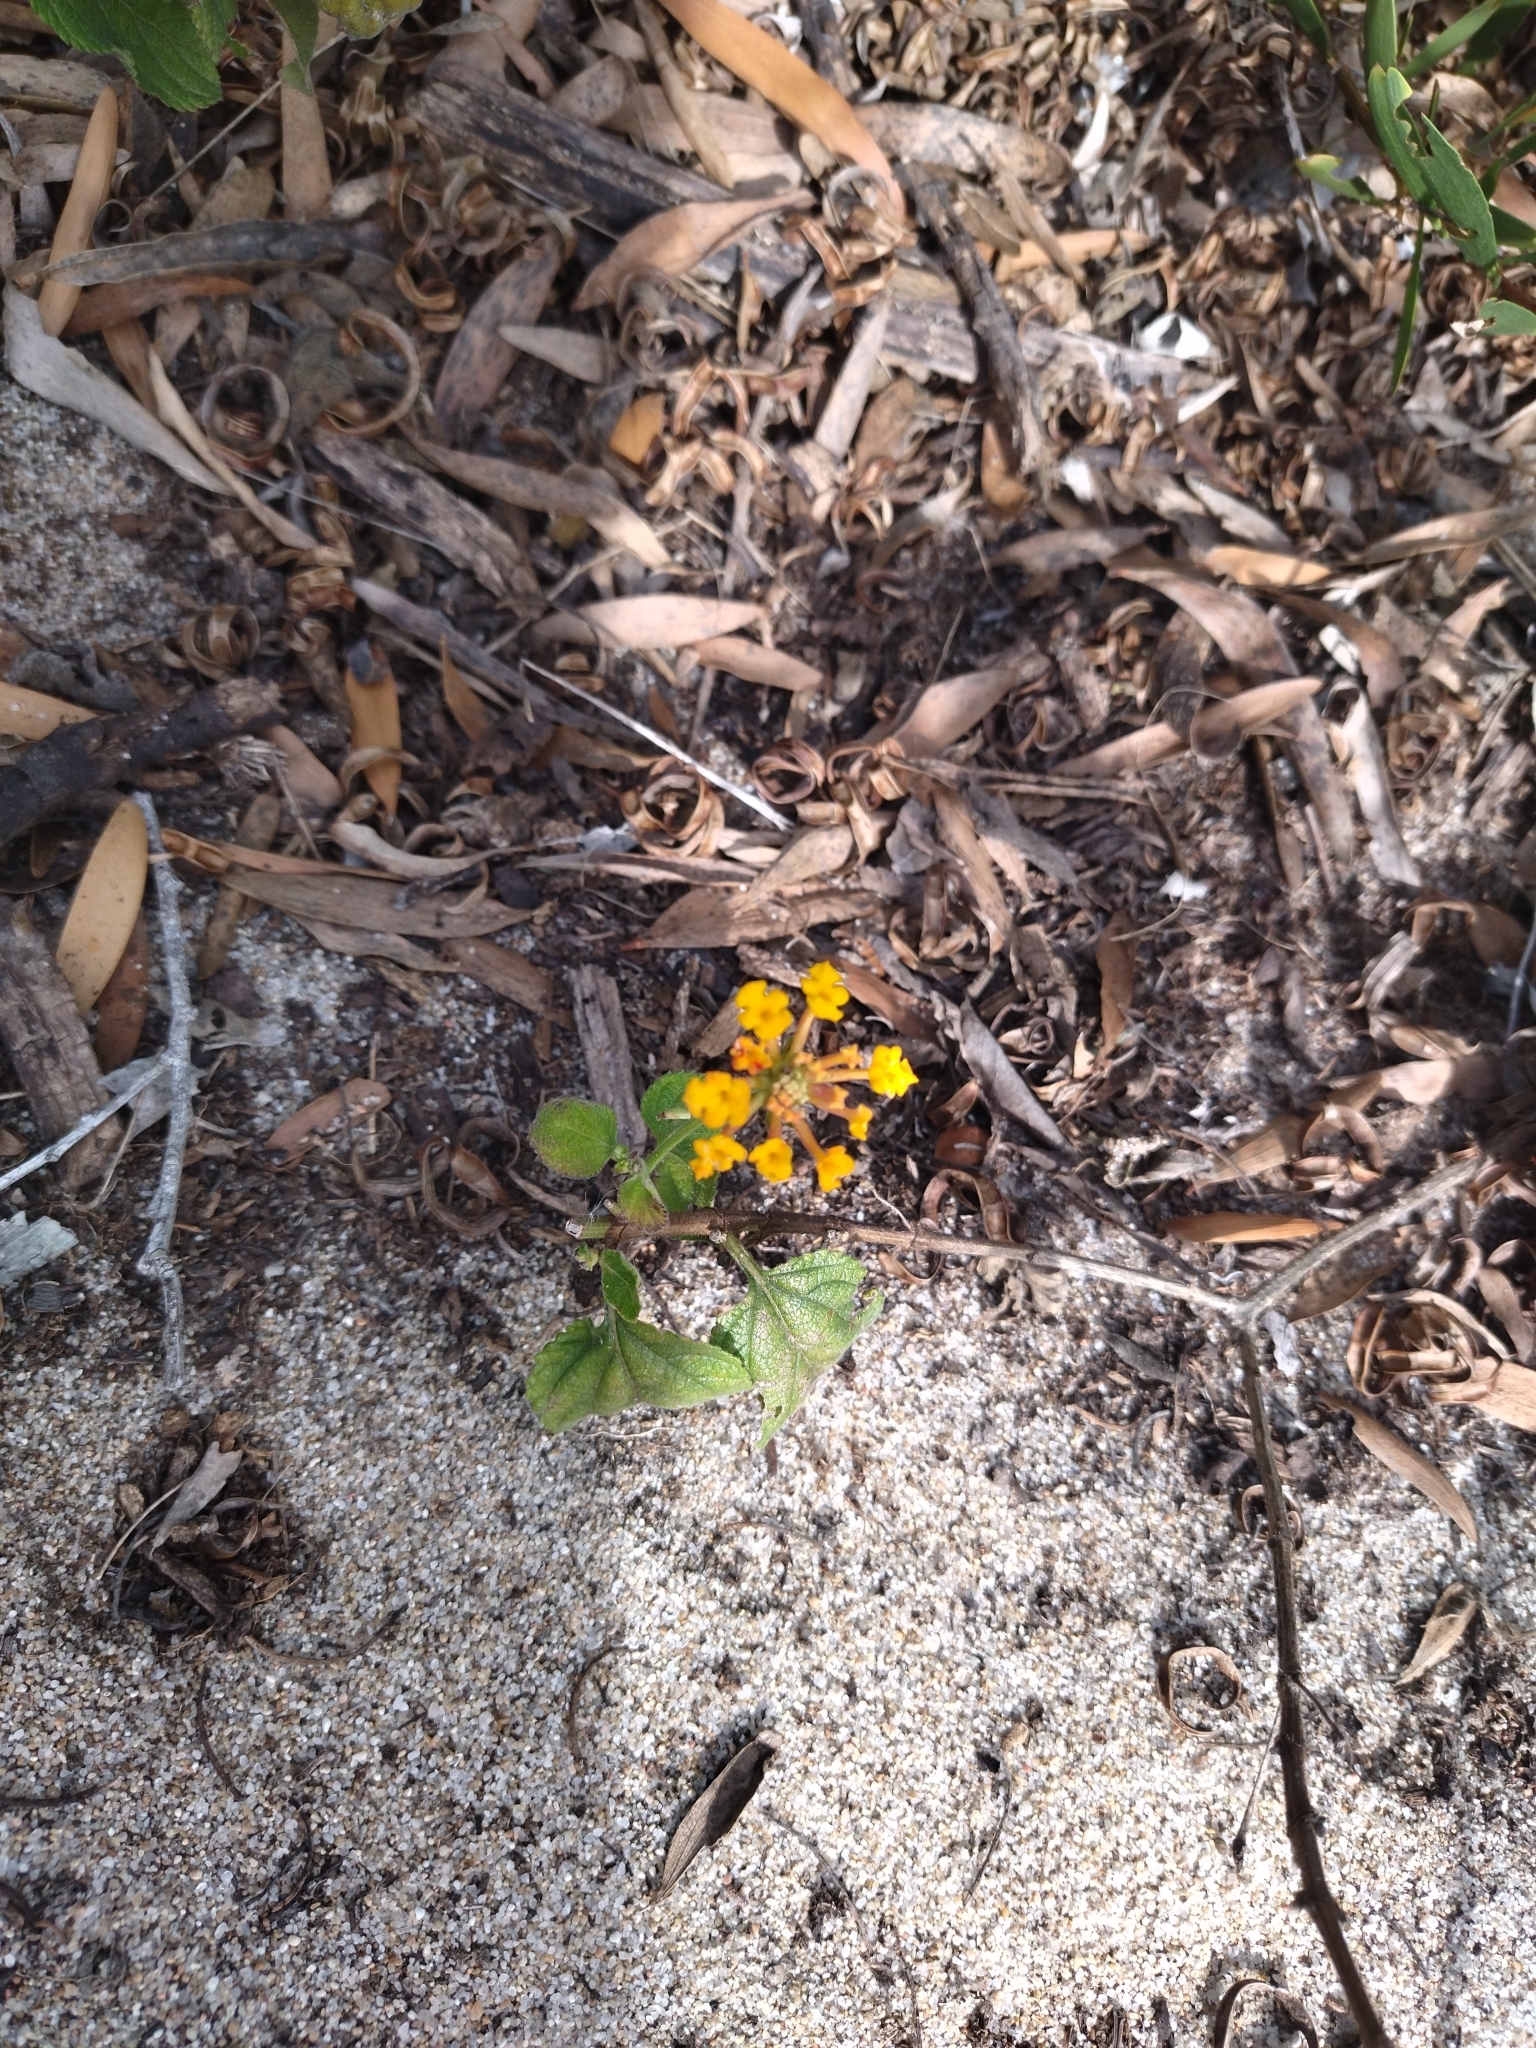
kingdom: Plantae
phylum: Tracheophyta
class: Magnoliopsida
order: Lamiales
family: Verbenaceae
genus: Lantana
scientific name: Lantana camara
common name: Lantana
